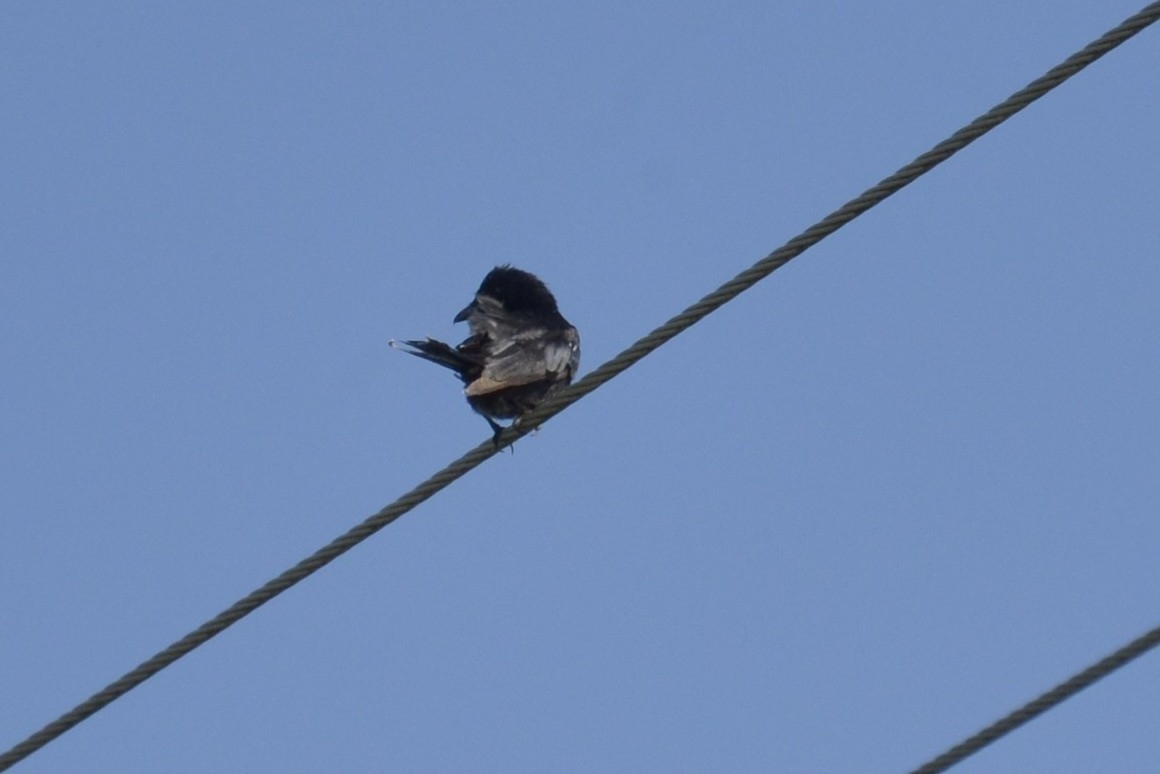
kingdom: Animalia
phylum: Chordata
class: Aves
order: Passeriformes
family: Dicruridae
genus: Dicrurus
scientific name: Dicrurus macrocercus
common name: Black drongo
